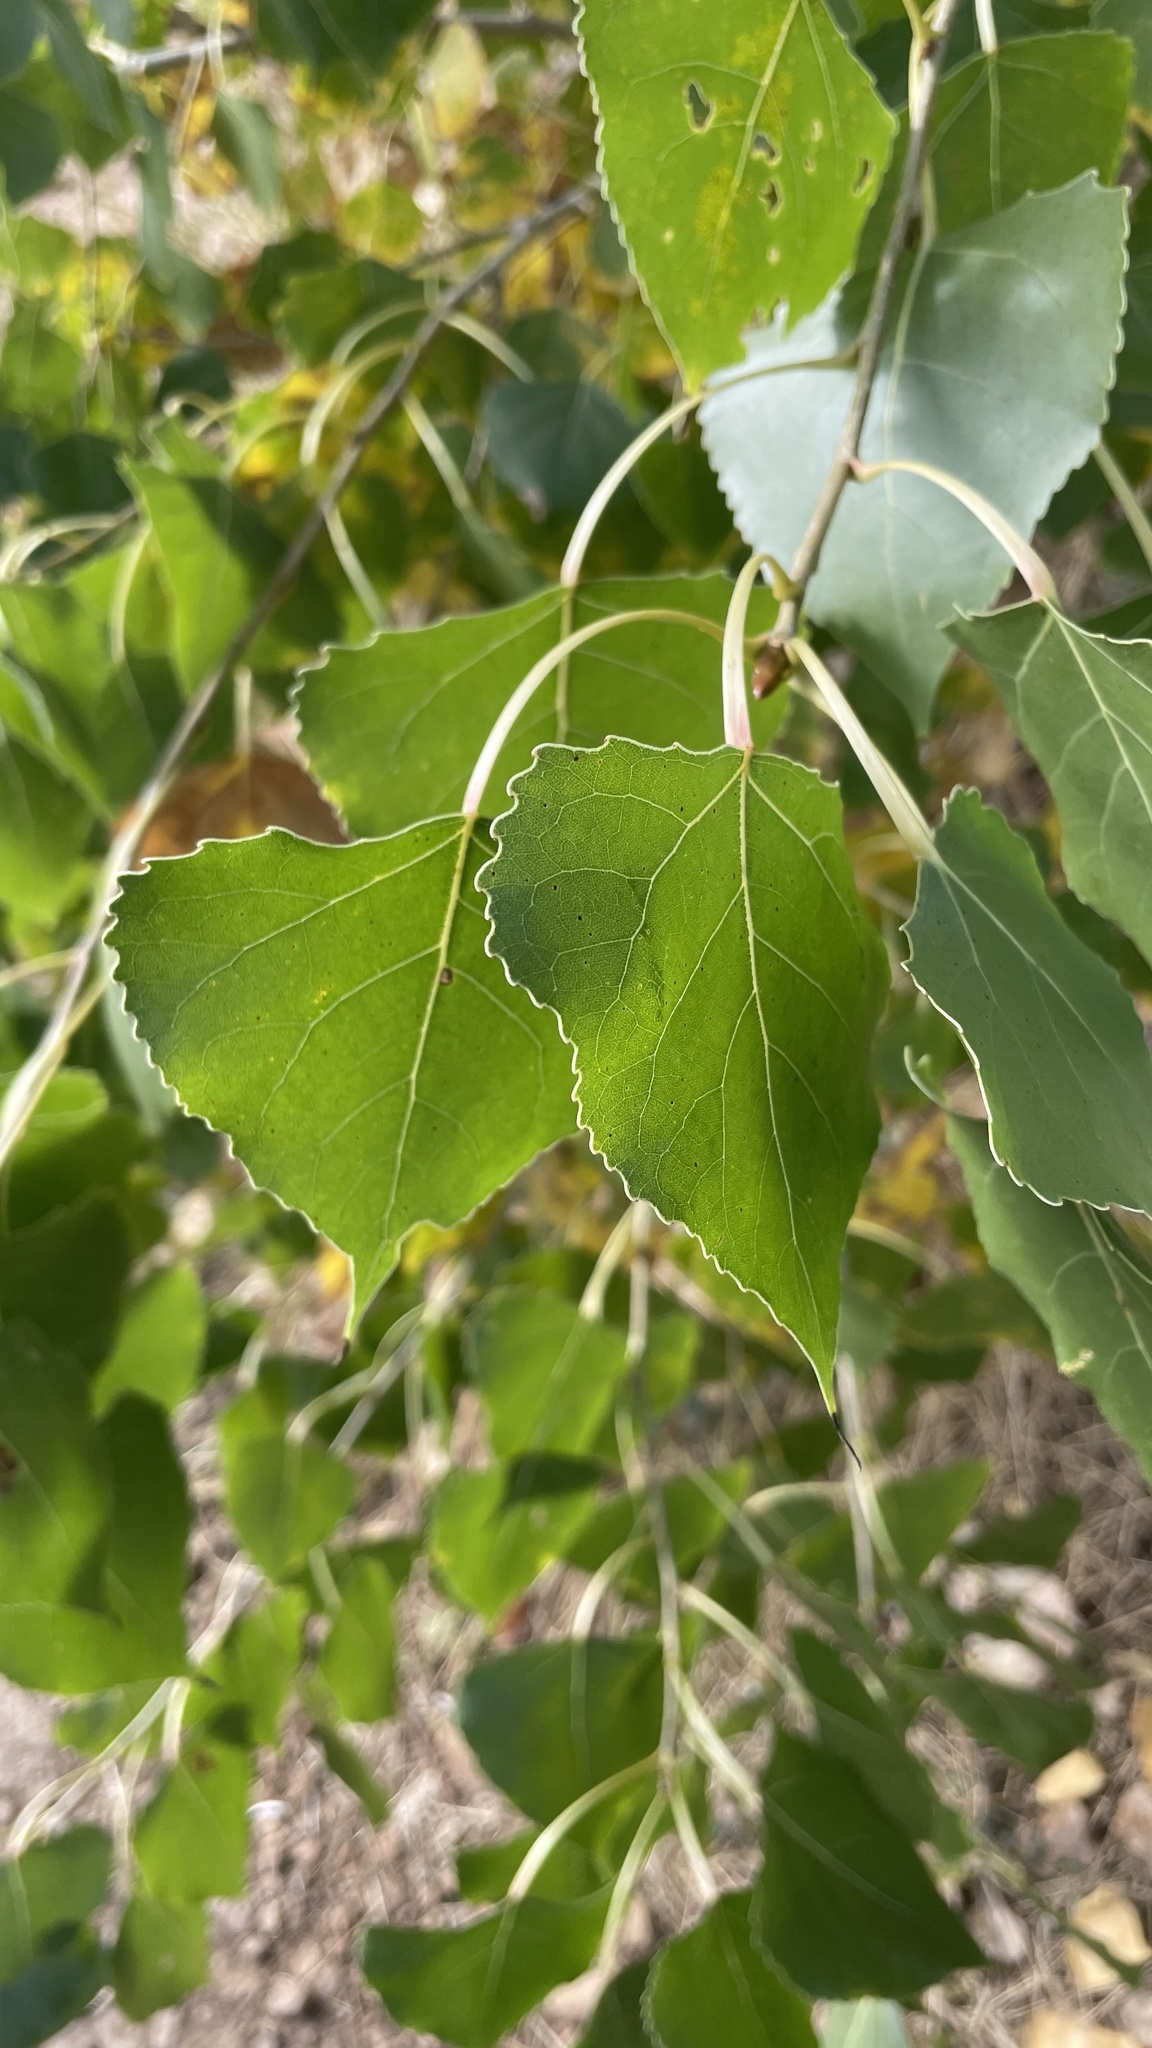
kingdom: Plantae
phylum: Tracheophyta
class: Magnoliopsida
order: Malpighiales
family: Salicaceae
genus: Populus
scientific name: Populus deltoides
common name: Eastern cottonwood
